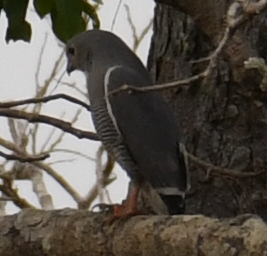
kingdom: Animalia
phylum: Chordata
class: Aves
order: Accipitriformes
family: Accipitridae
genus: Kaupifalco
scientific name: Kaupifalco monogrammicus
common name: Lizard buzzard
